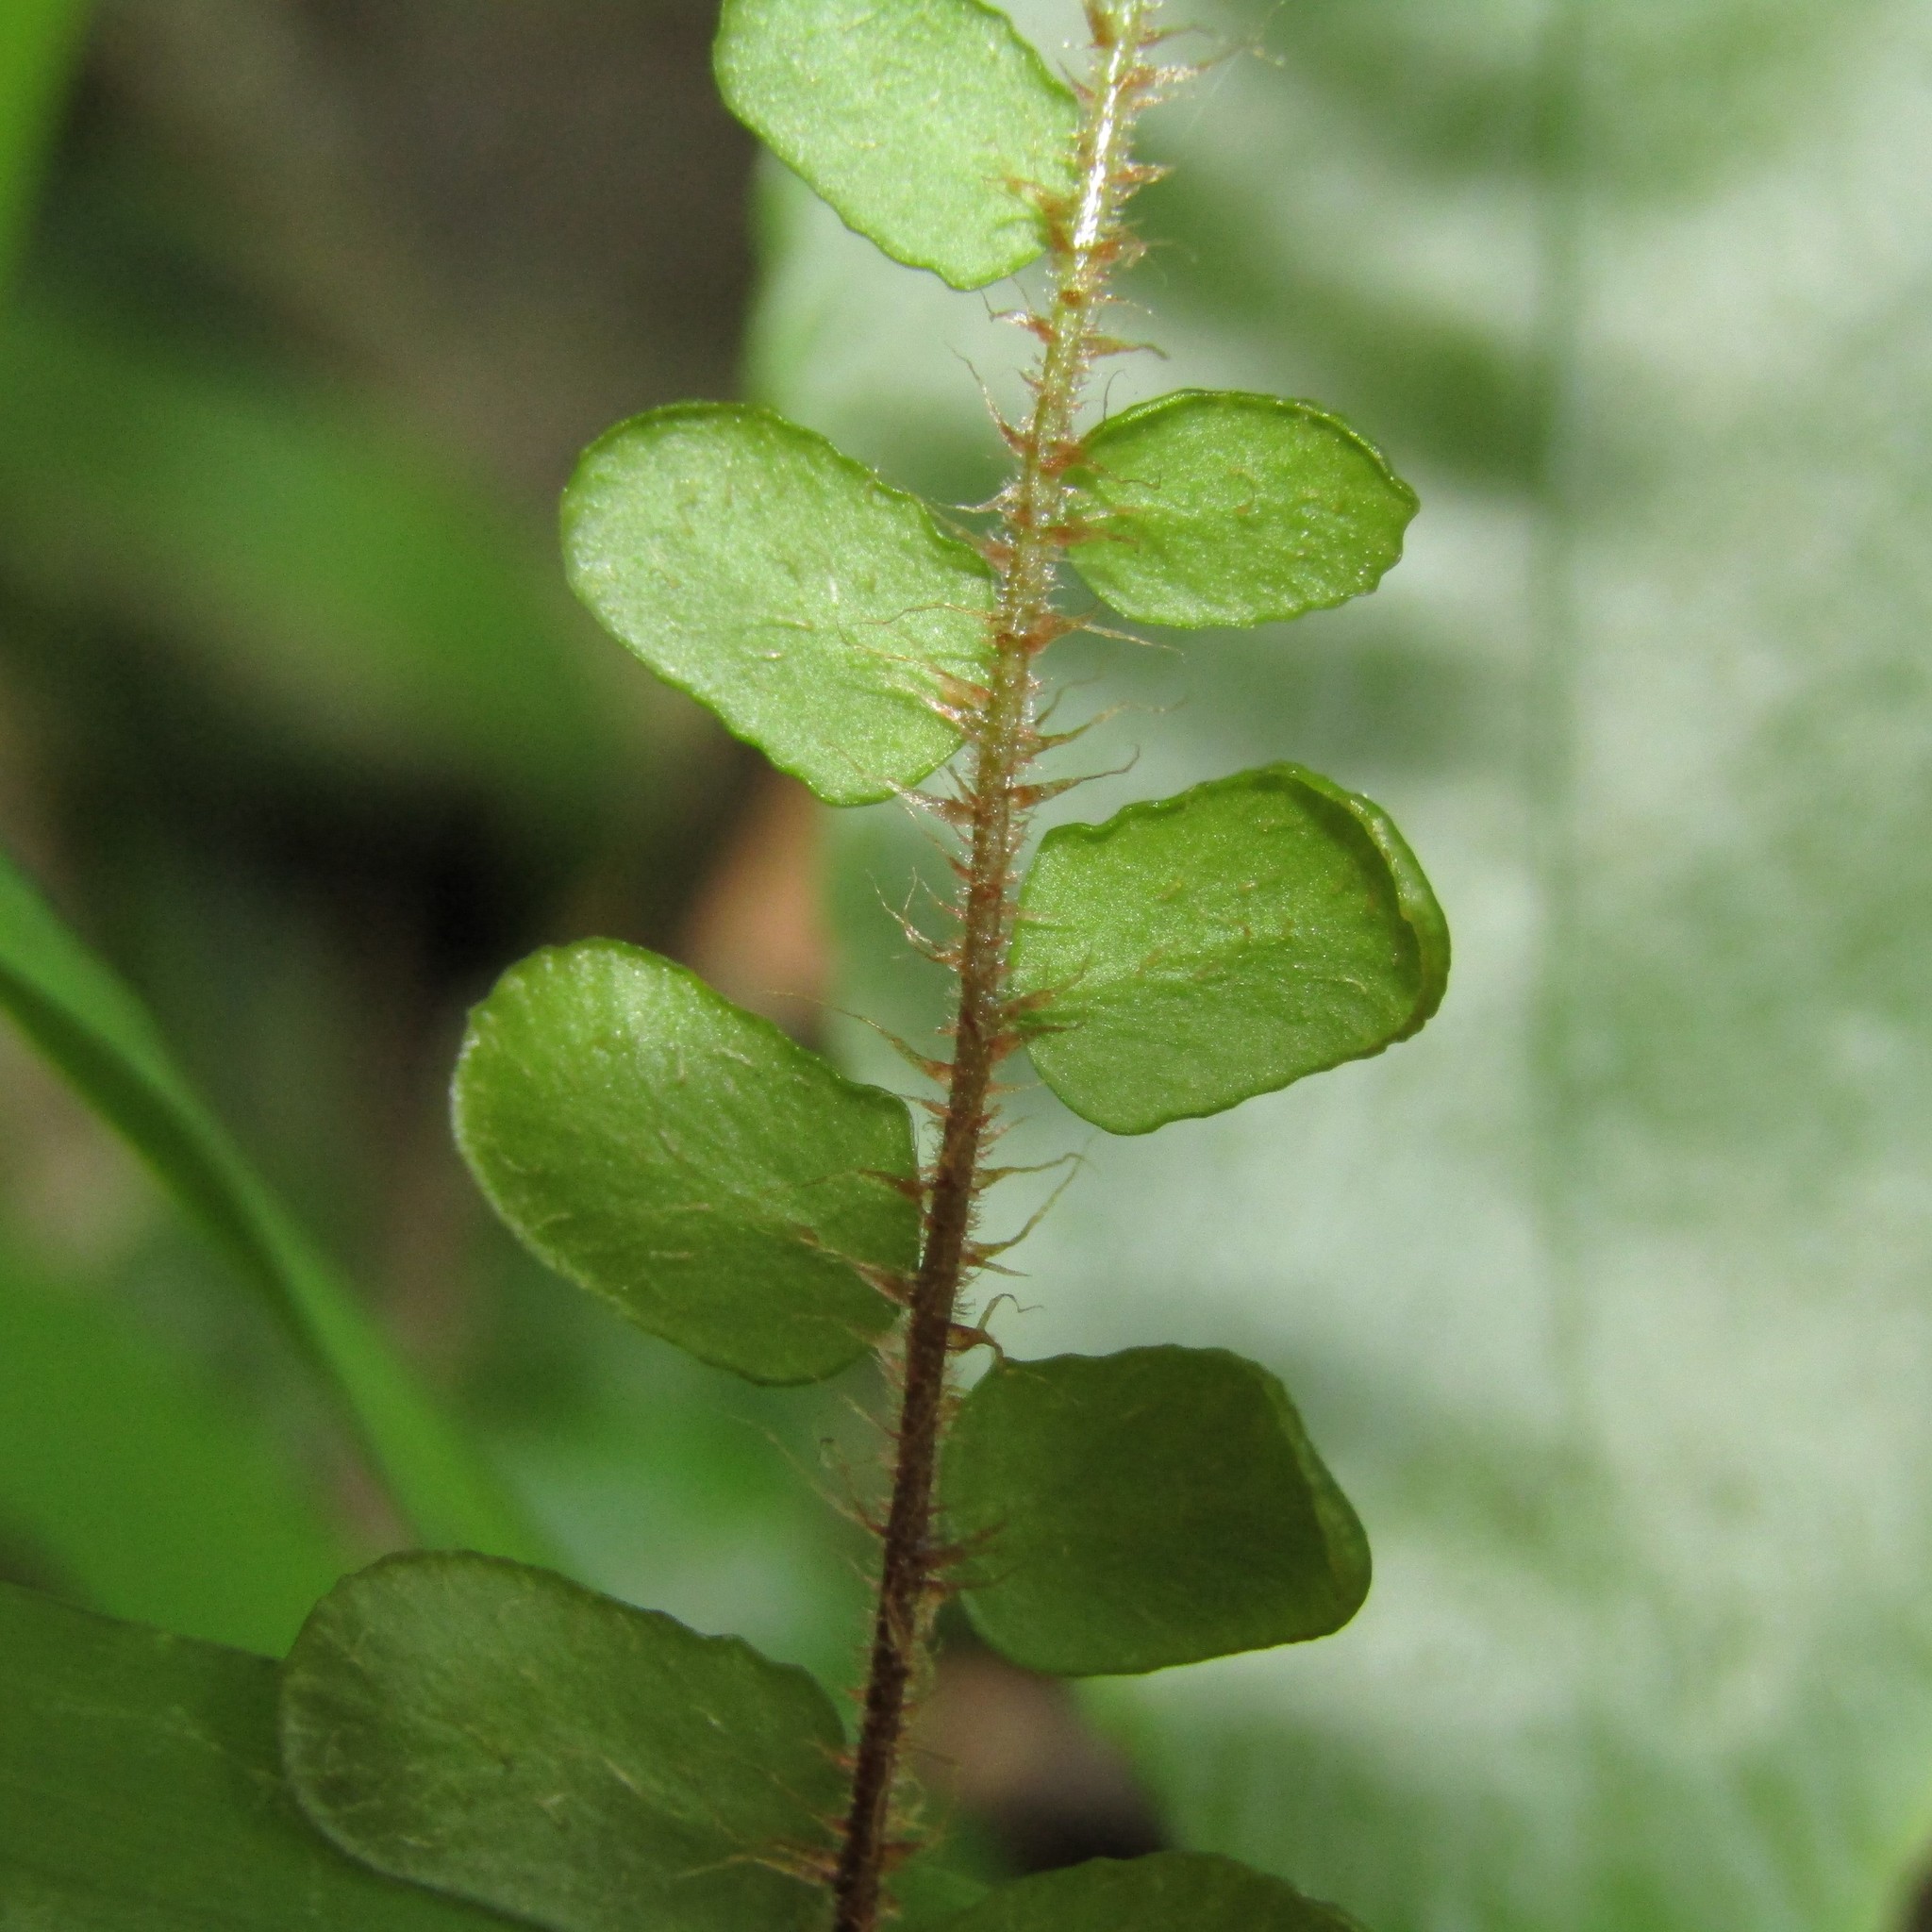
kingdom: Plantae
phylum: Tracheophyta
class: Polypodiopsida
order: Polypodiales
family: Blechnaceae
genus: Cranfillia
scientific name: Cranfillia fluviatilis
